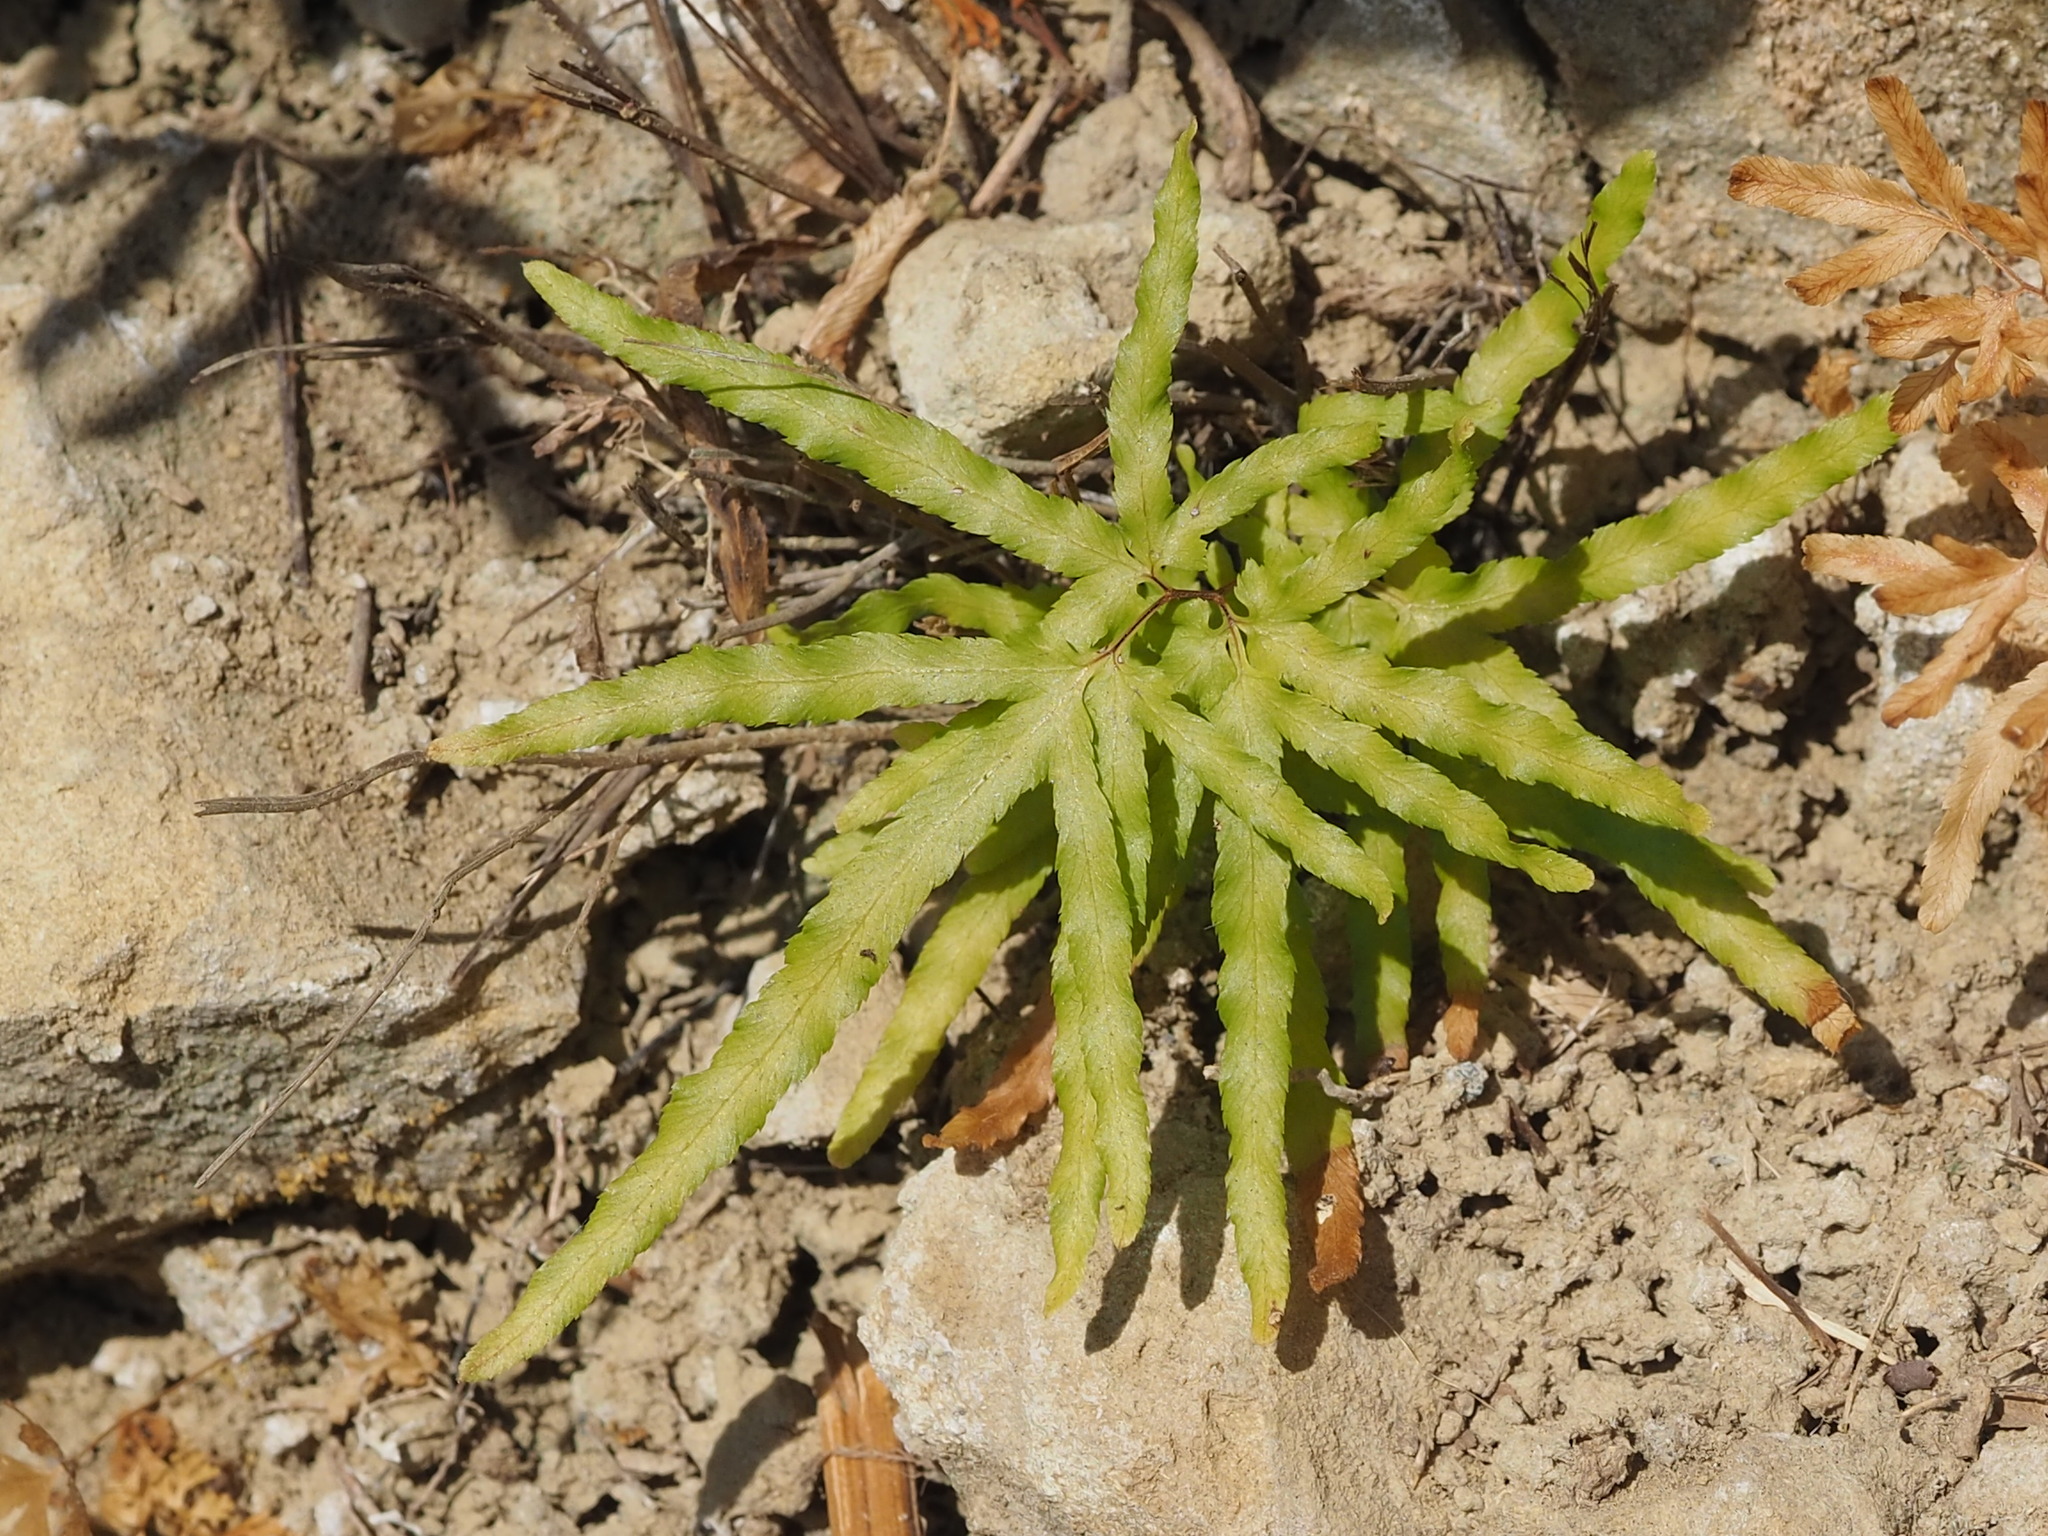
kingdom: Plantae
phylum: Tracheophyta
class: Polypodiopsida
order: Schizaeales
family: Lygodiaceae
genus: Lygodium
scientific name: Lygodium japonicum
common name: Japanese climbing fern
